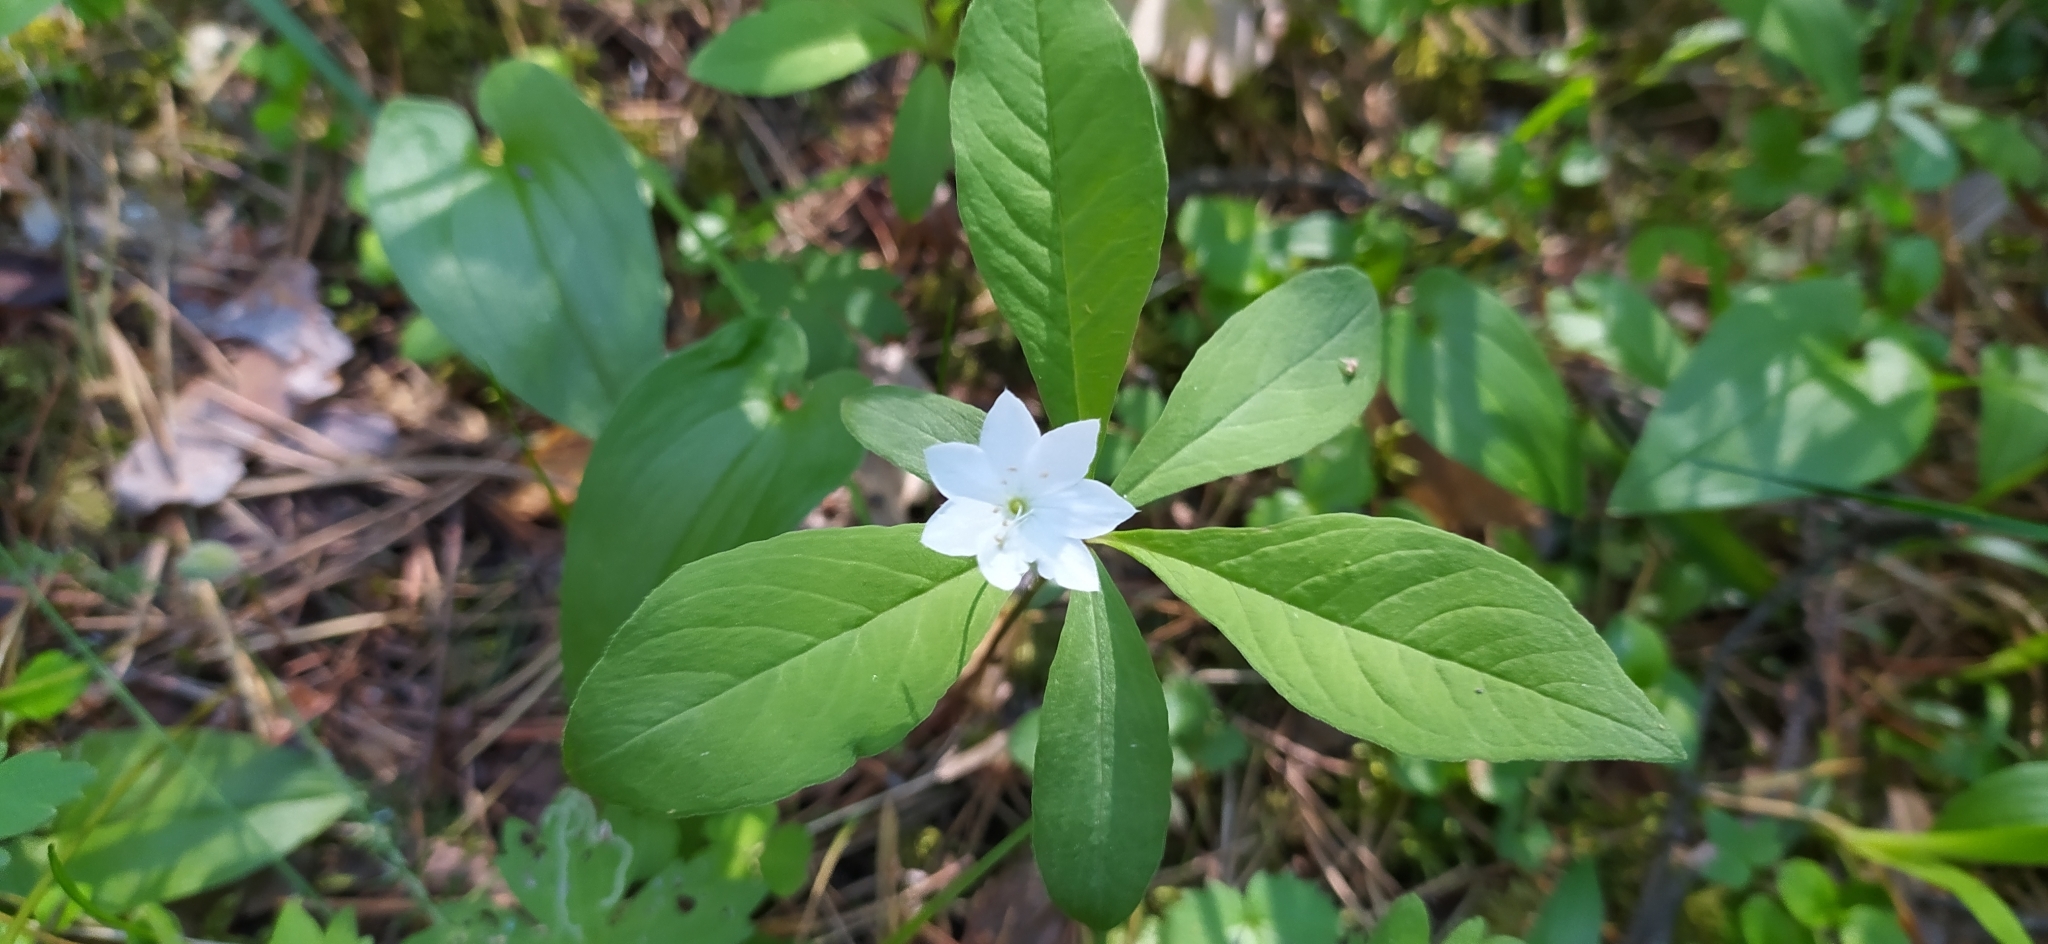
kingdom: Plantae
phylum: Tracheophyta
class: Magnoliopsida
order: Ericales
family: Primulaceae
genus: Lysimachia
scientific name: Lysimachia europaea
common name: Arctic starflower
